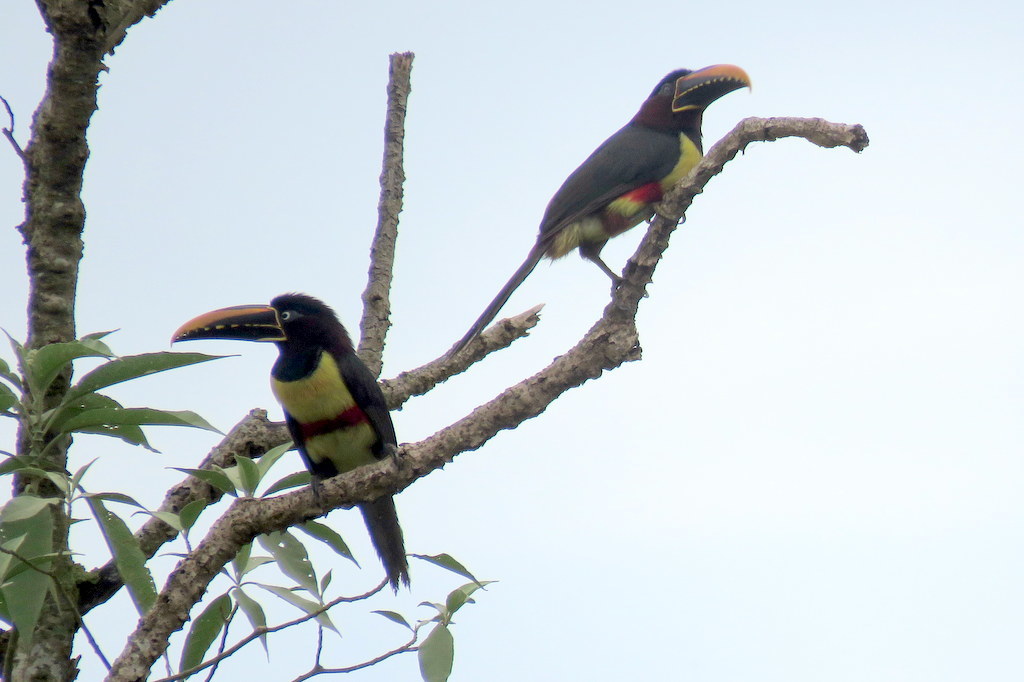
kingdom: Animalia
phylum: Chordata
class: Aves
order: Piciformes
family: Ramphastidae
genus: Pteroglossus
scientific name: Pteroglossus castanotis
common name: Chestnut-eared aracari
